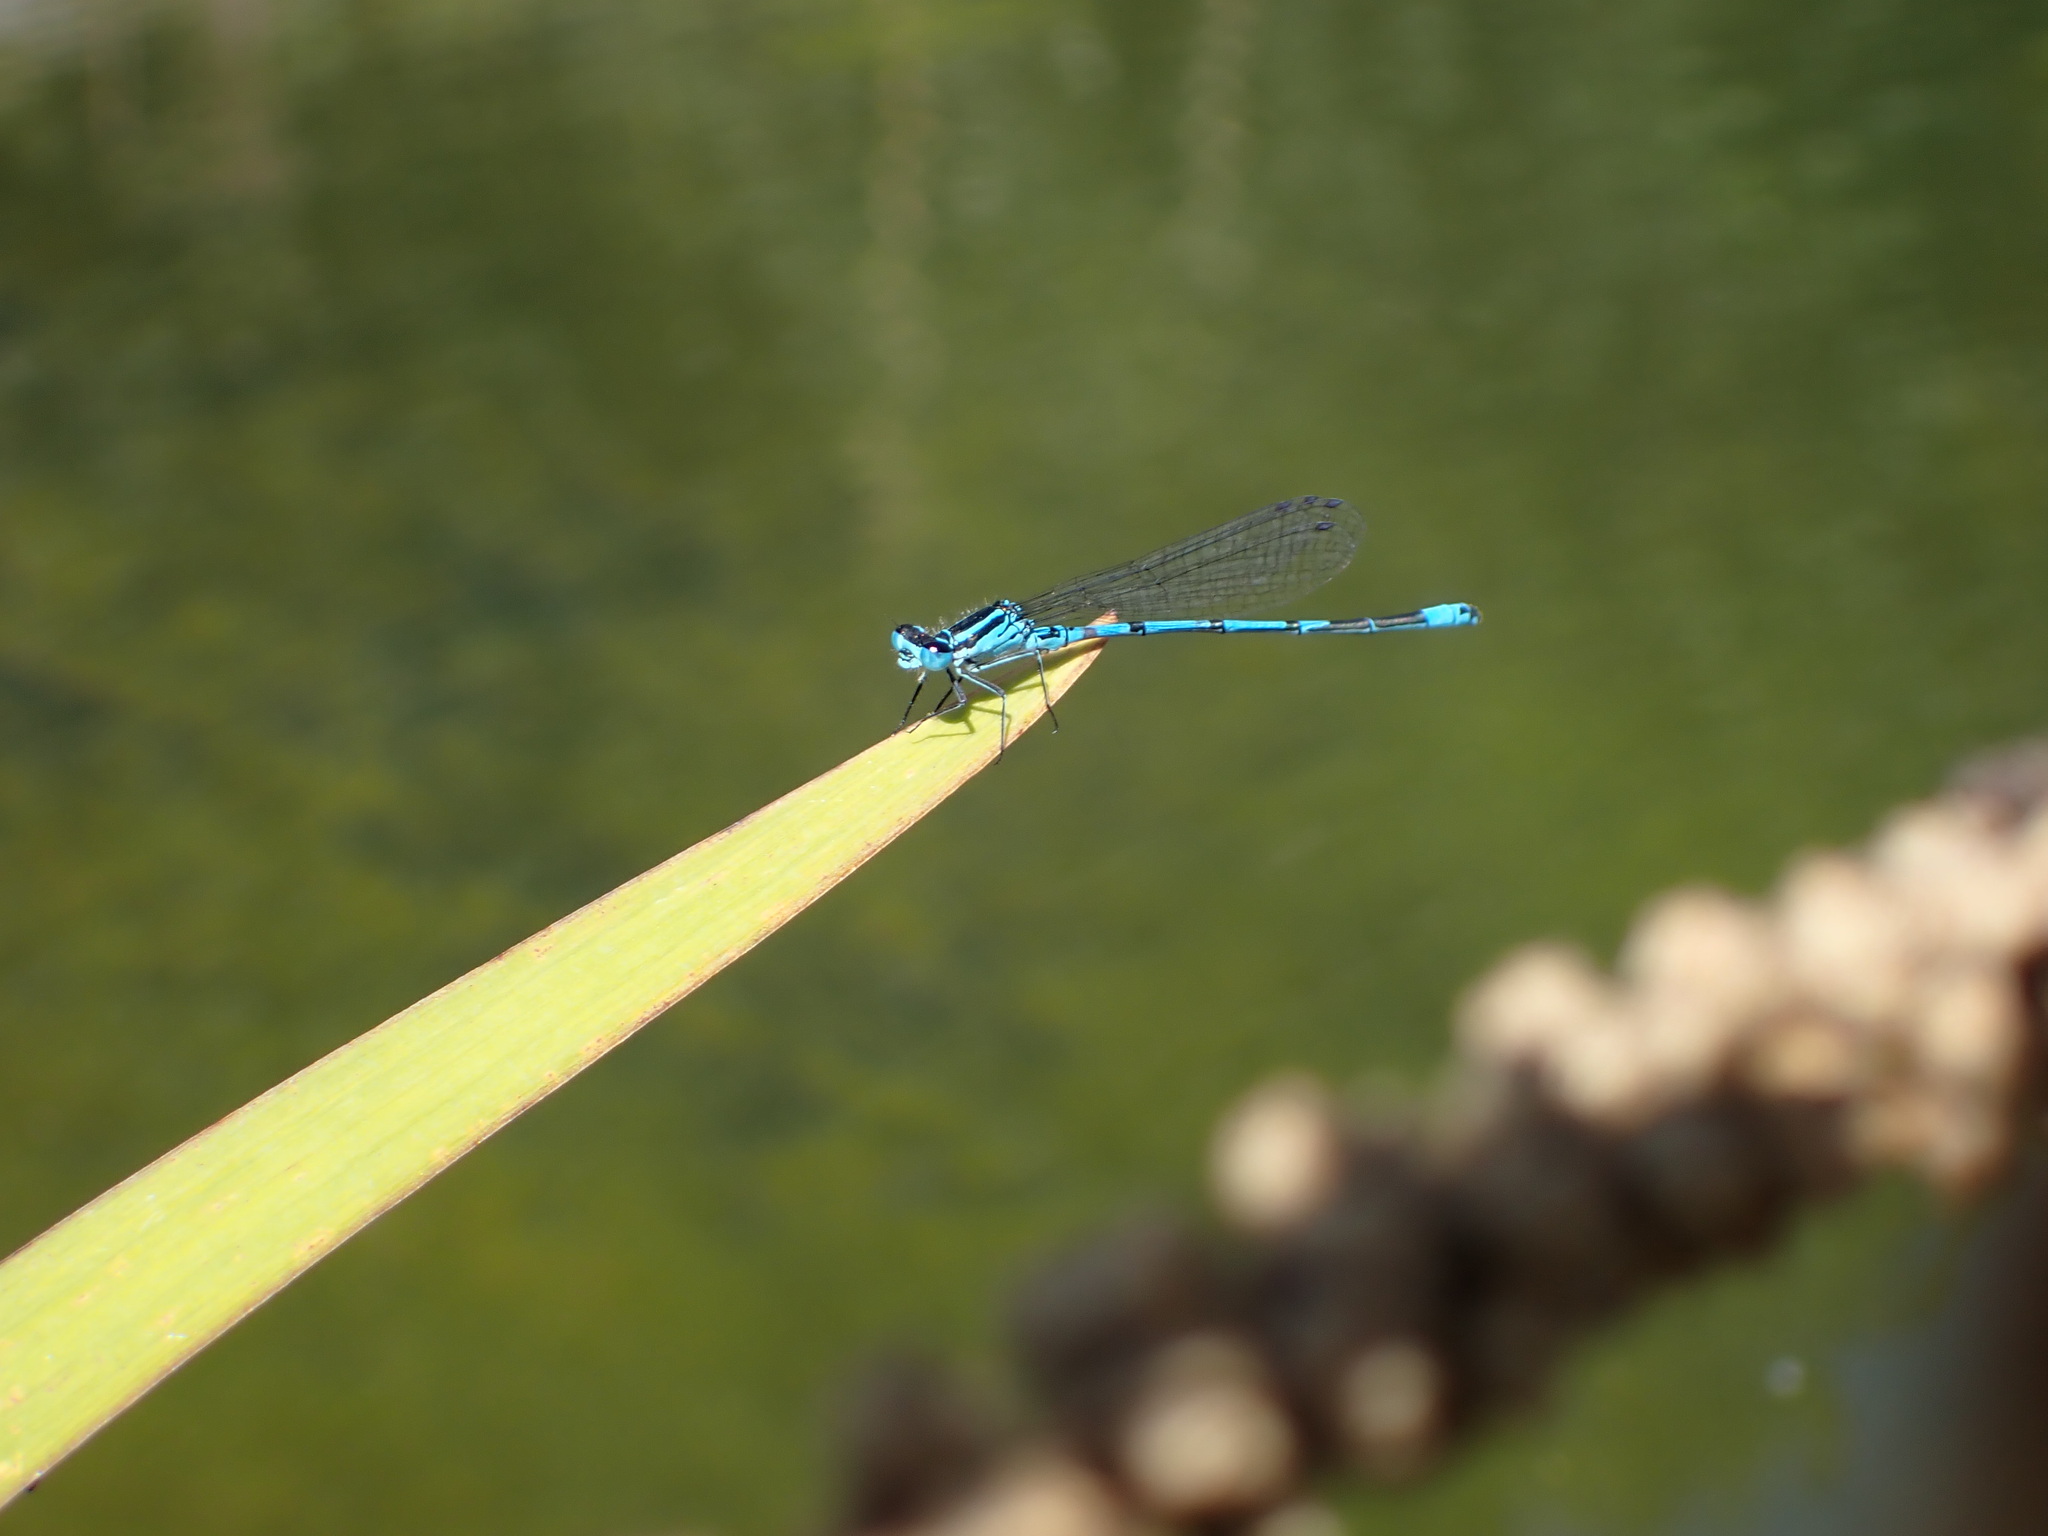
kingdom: Animalia
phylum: Arthropoda
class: Insecta
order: Odonata
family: Coenagrionidae
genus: Coenagrion
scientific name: Coenagrion puella
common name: Azure damselfly
